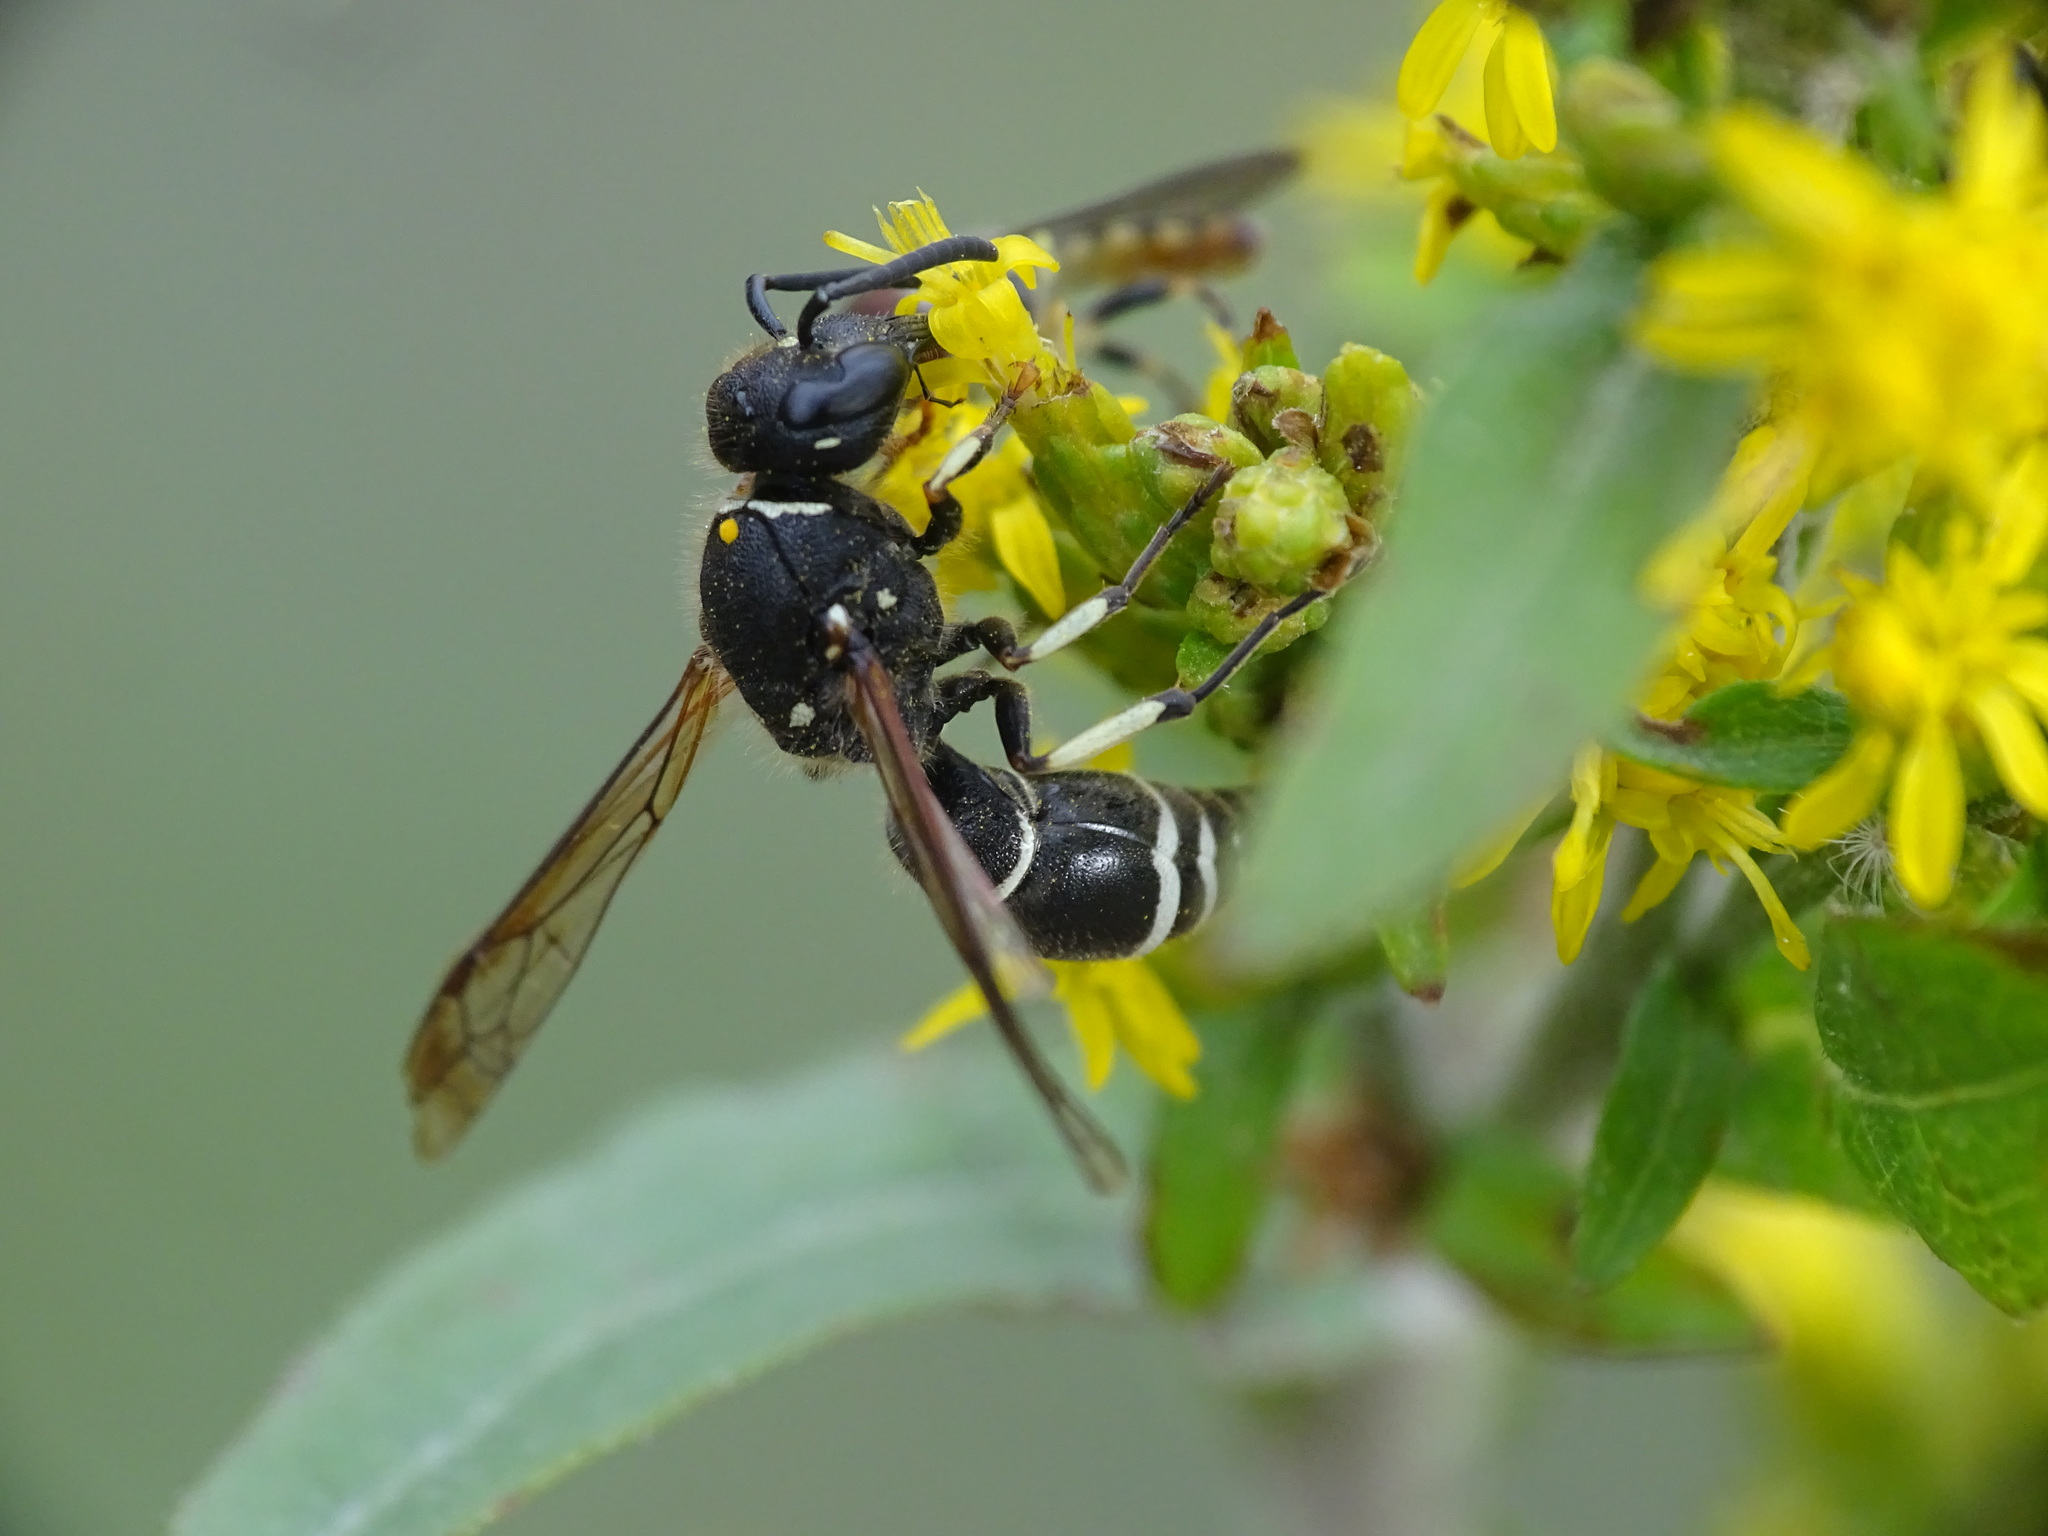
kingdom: Animalia
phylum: Arthropoda
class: Insecta
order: Hymenoptera
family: Vespidae
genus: Ancistrocerus
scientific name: Ancistrocerus albophaleratus
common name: White-banded potter wasp
